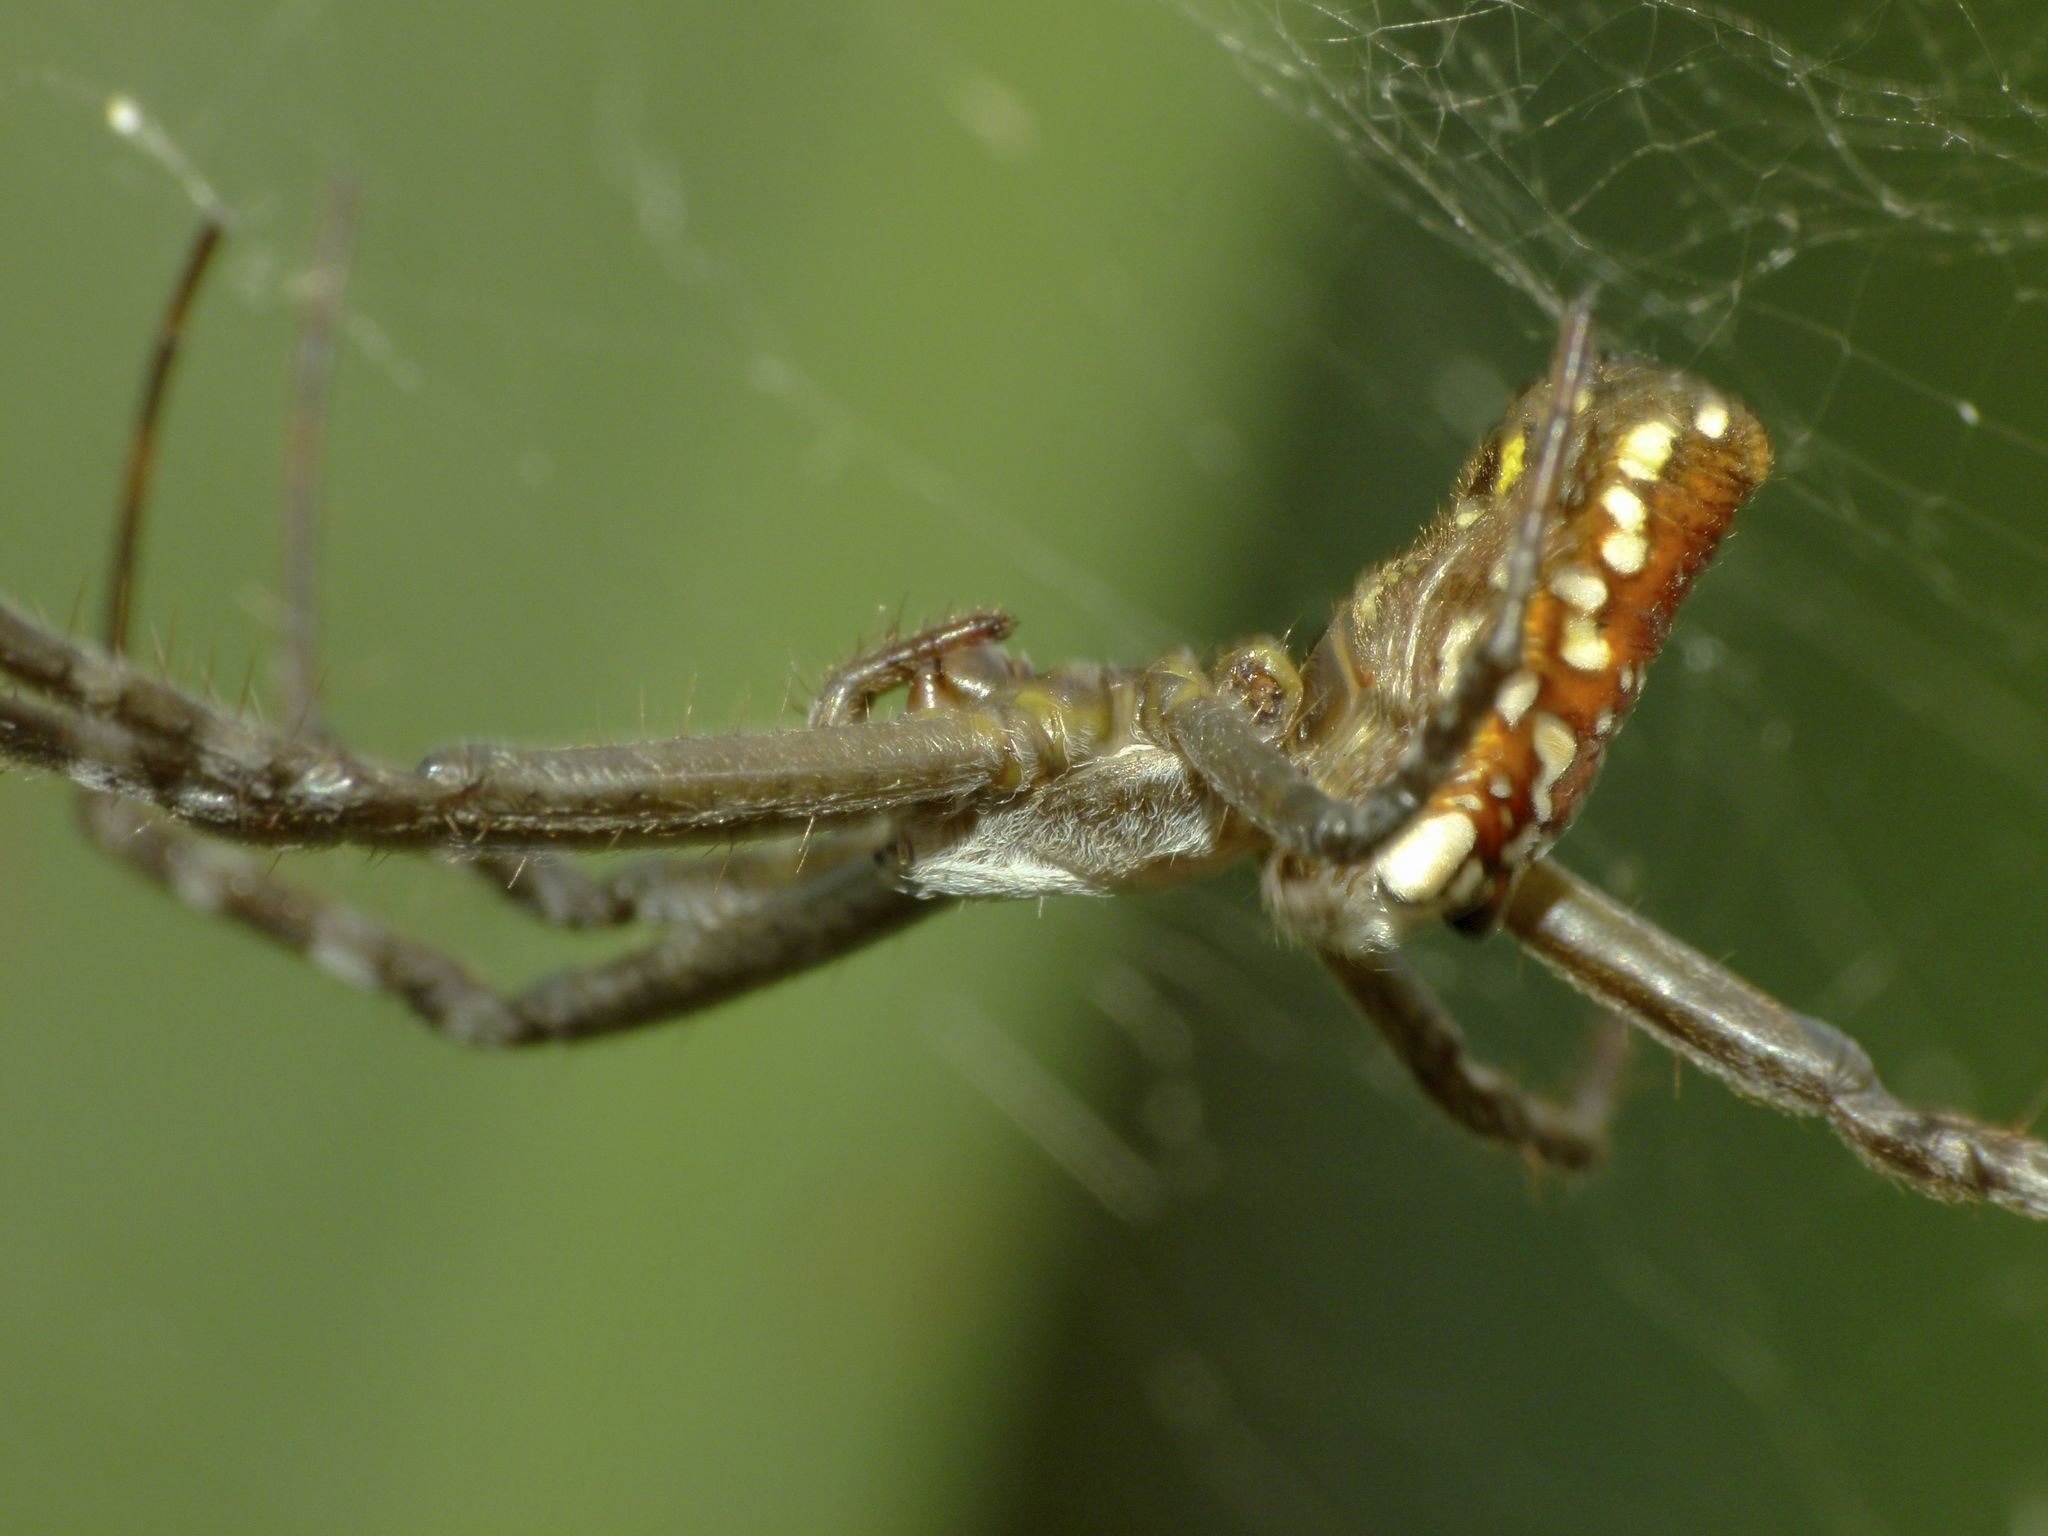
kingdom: Chromista
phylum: Ochrophyta
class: Dictyochophyceae
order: Pedinellales
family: Cyrtophoraceae
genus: Cyrtophora
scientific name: Cyrtophora moluccensis
